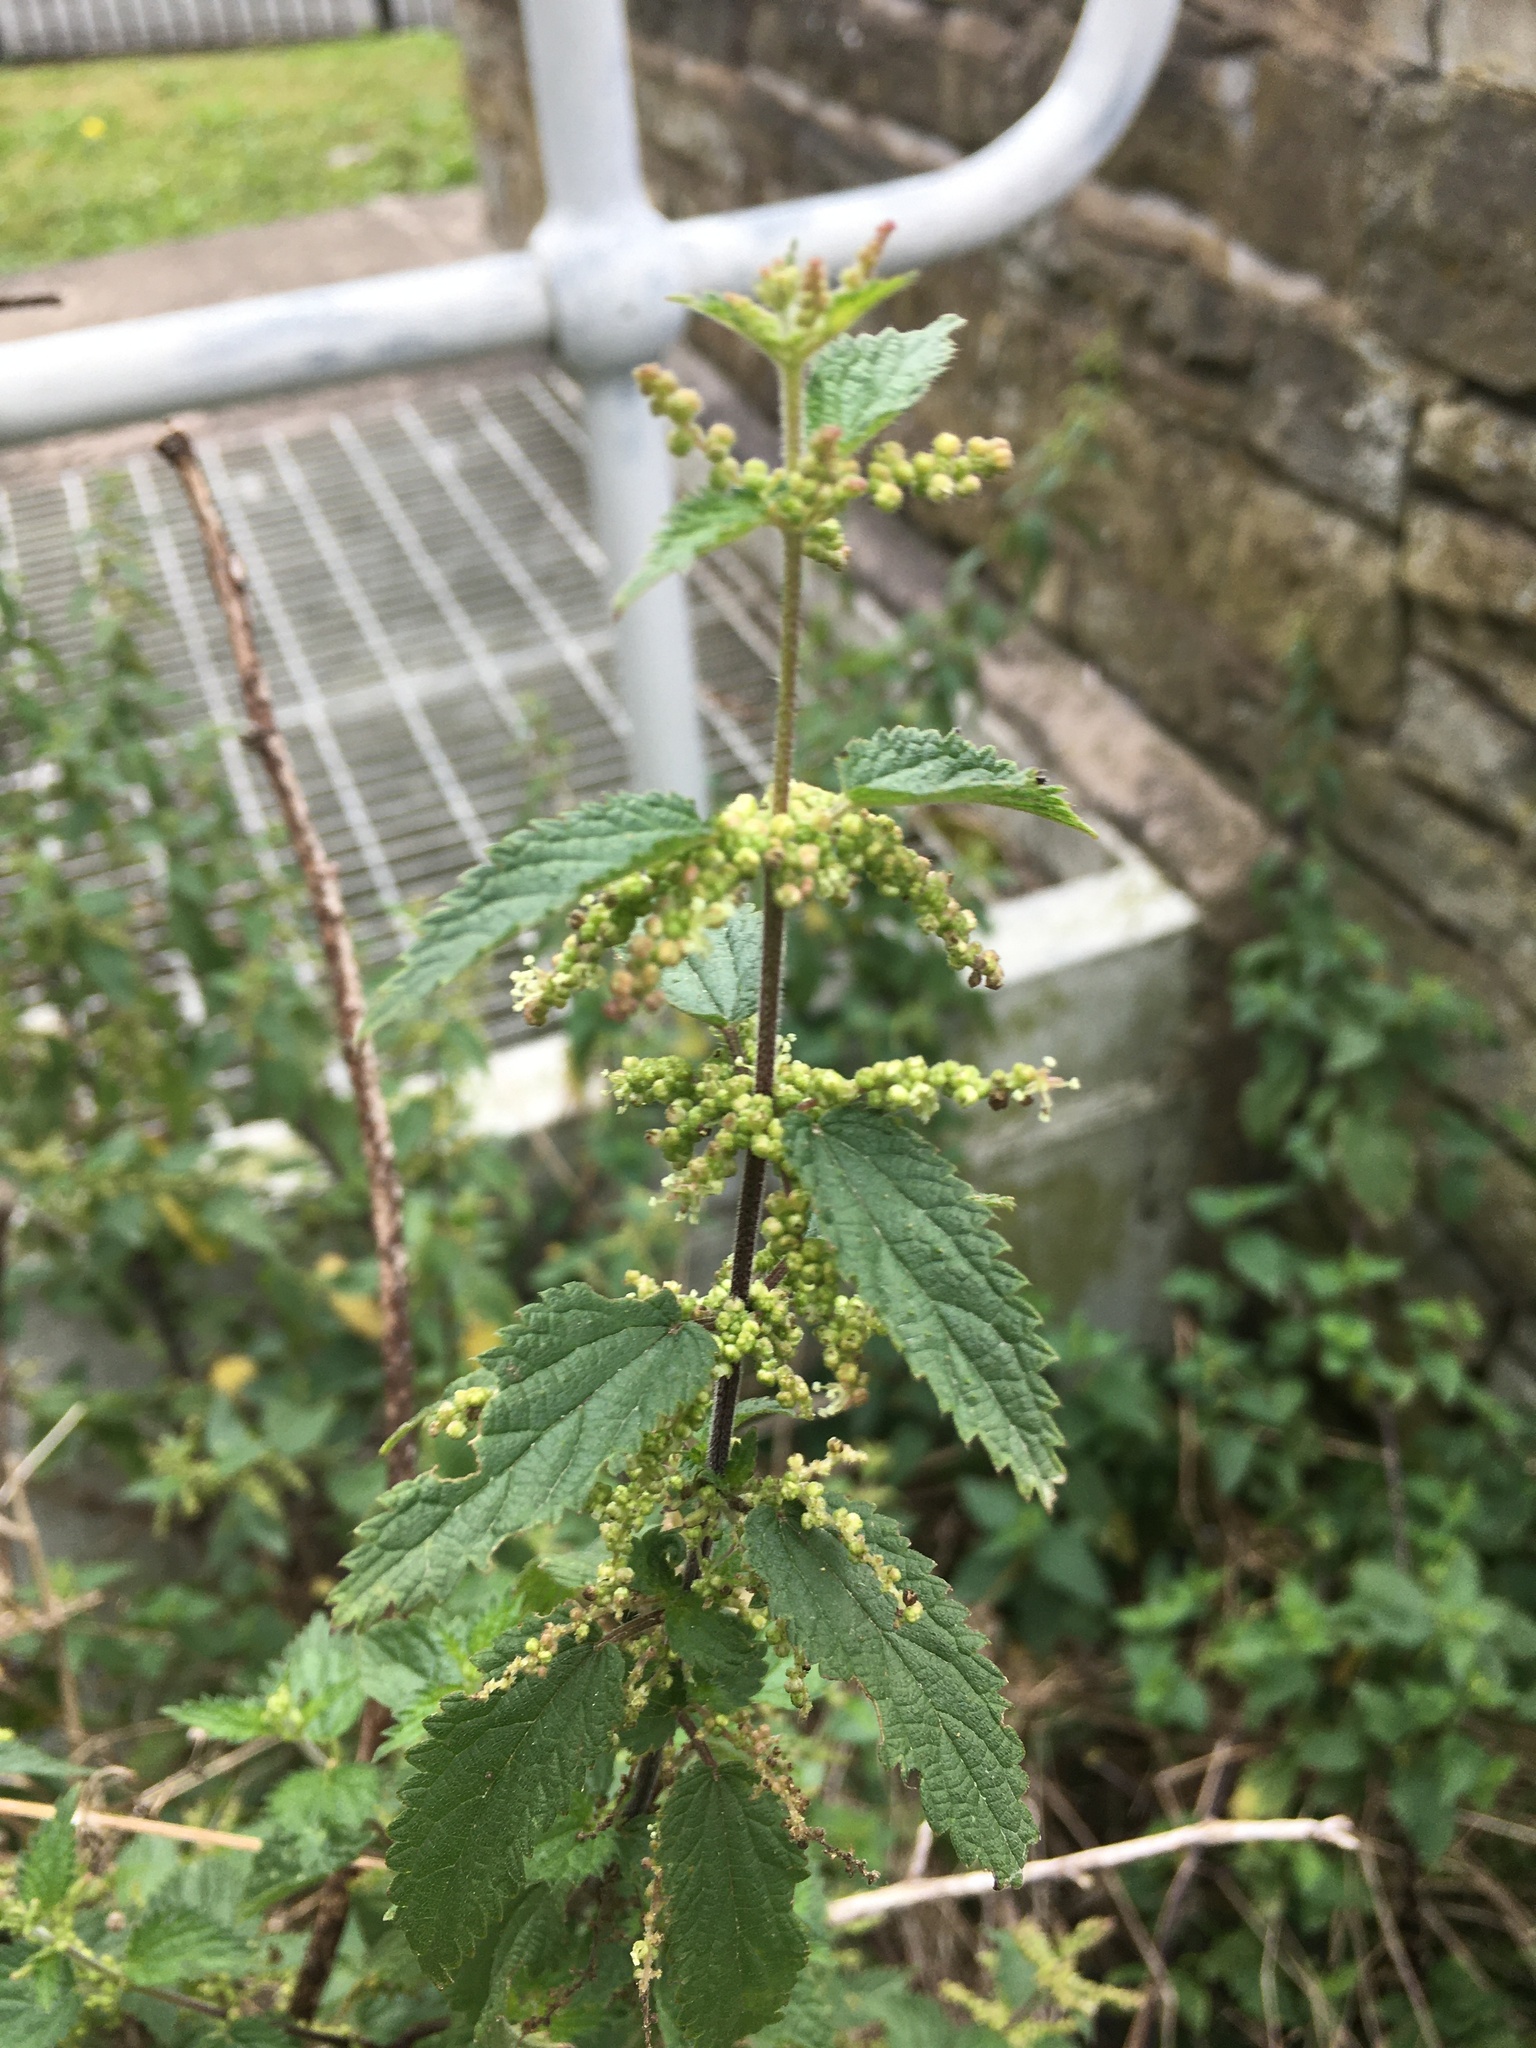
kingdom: Plantae
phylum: Tracheophyta
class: Magnoliopsida
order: Rosales
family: Urticaceae
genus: Urtica
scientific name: Urtica dioica
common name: Common nettle
